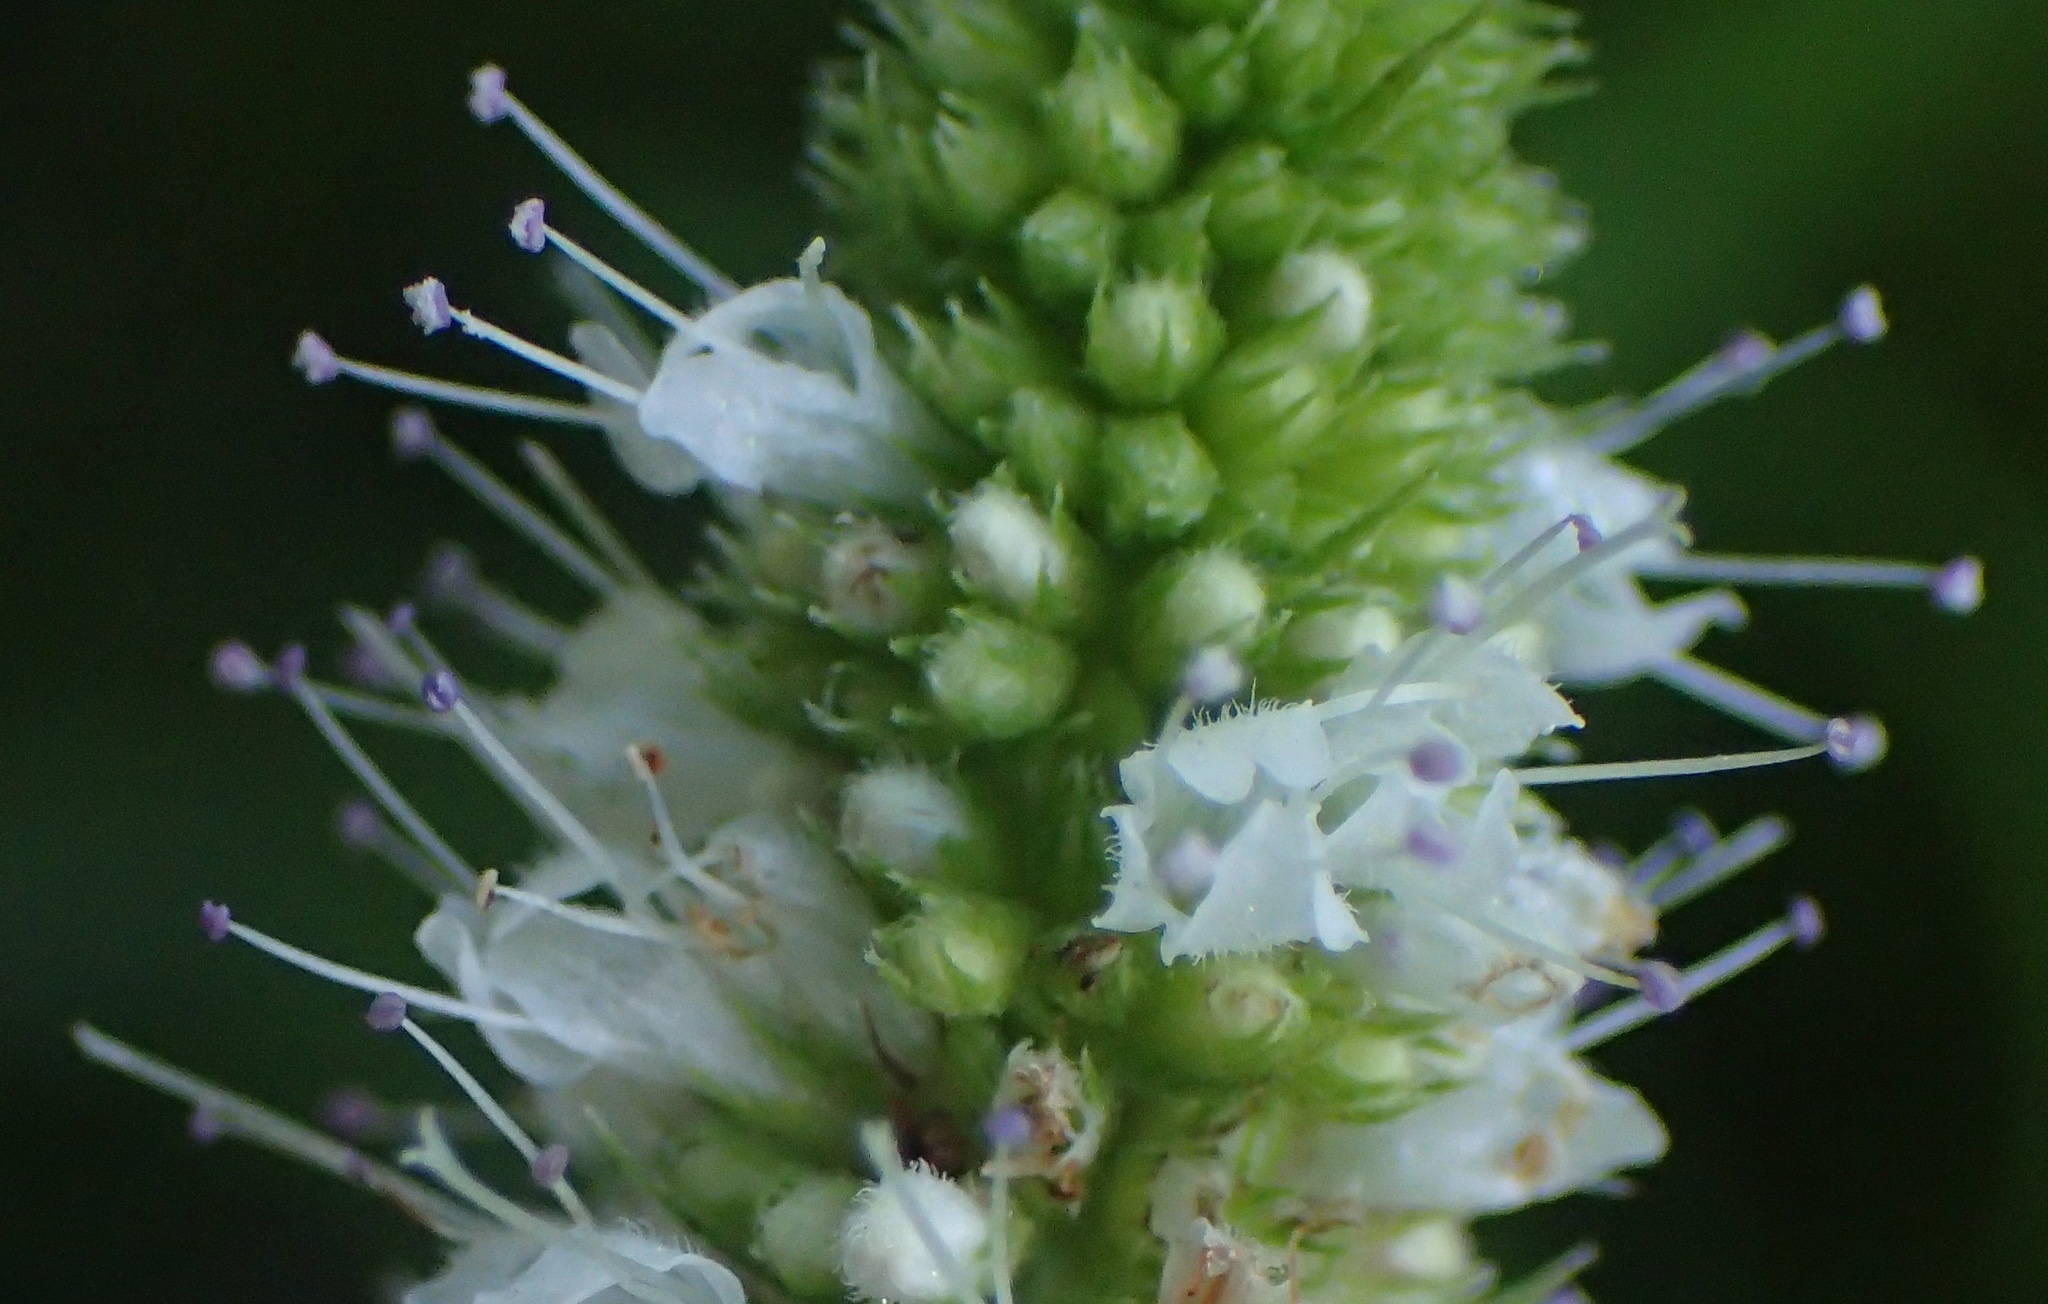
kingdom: Plantae
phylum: Tracheophyta
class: Magnoliopsida
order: Lamiales
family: Lamiaceae
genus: Mentha
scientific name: Mentha longifolia
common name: Horse mint
